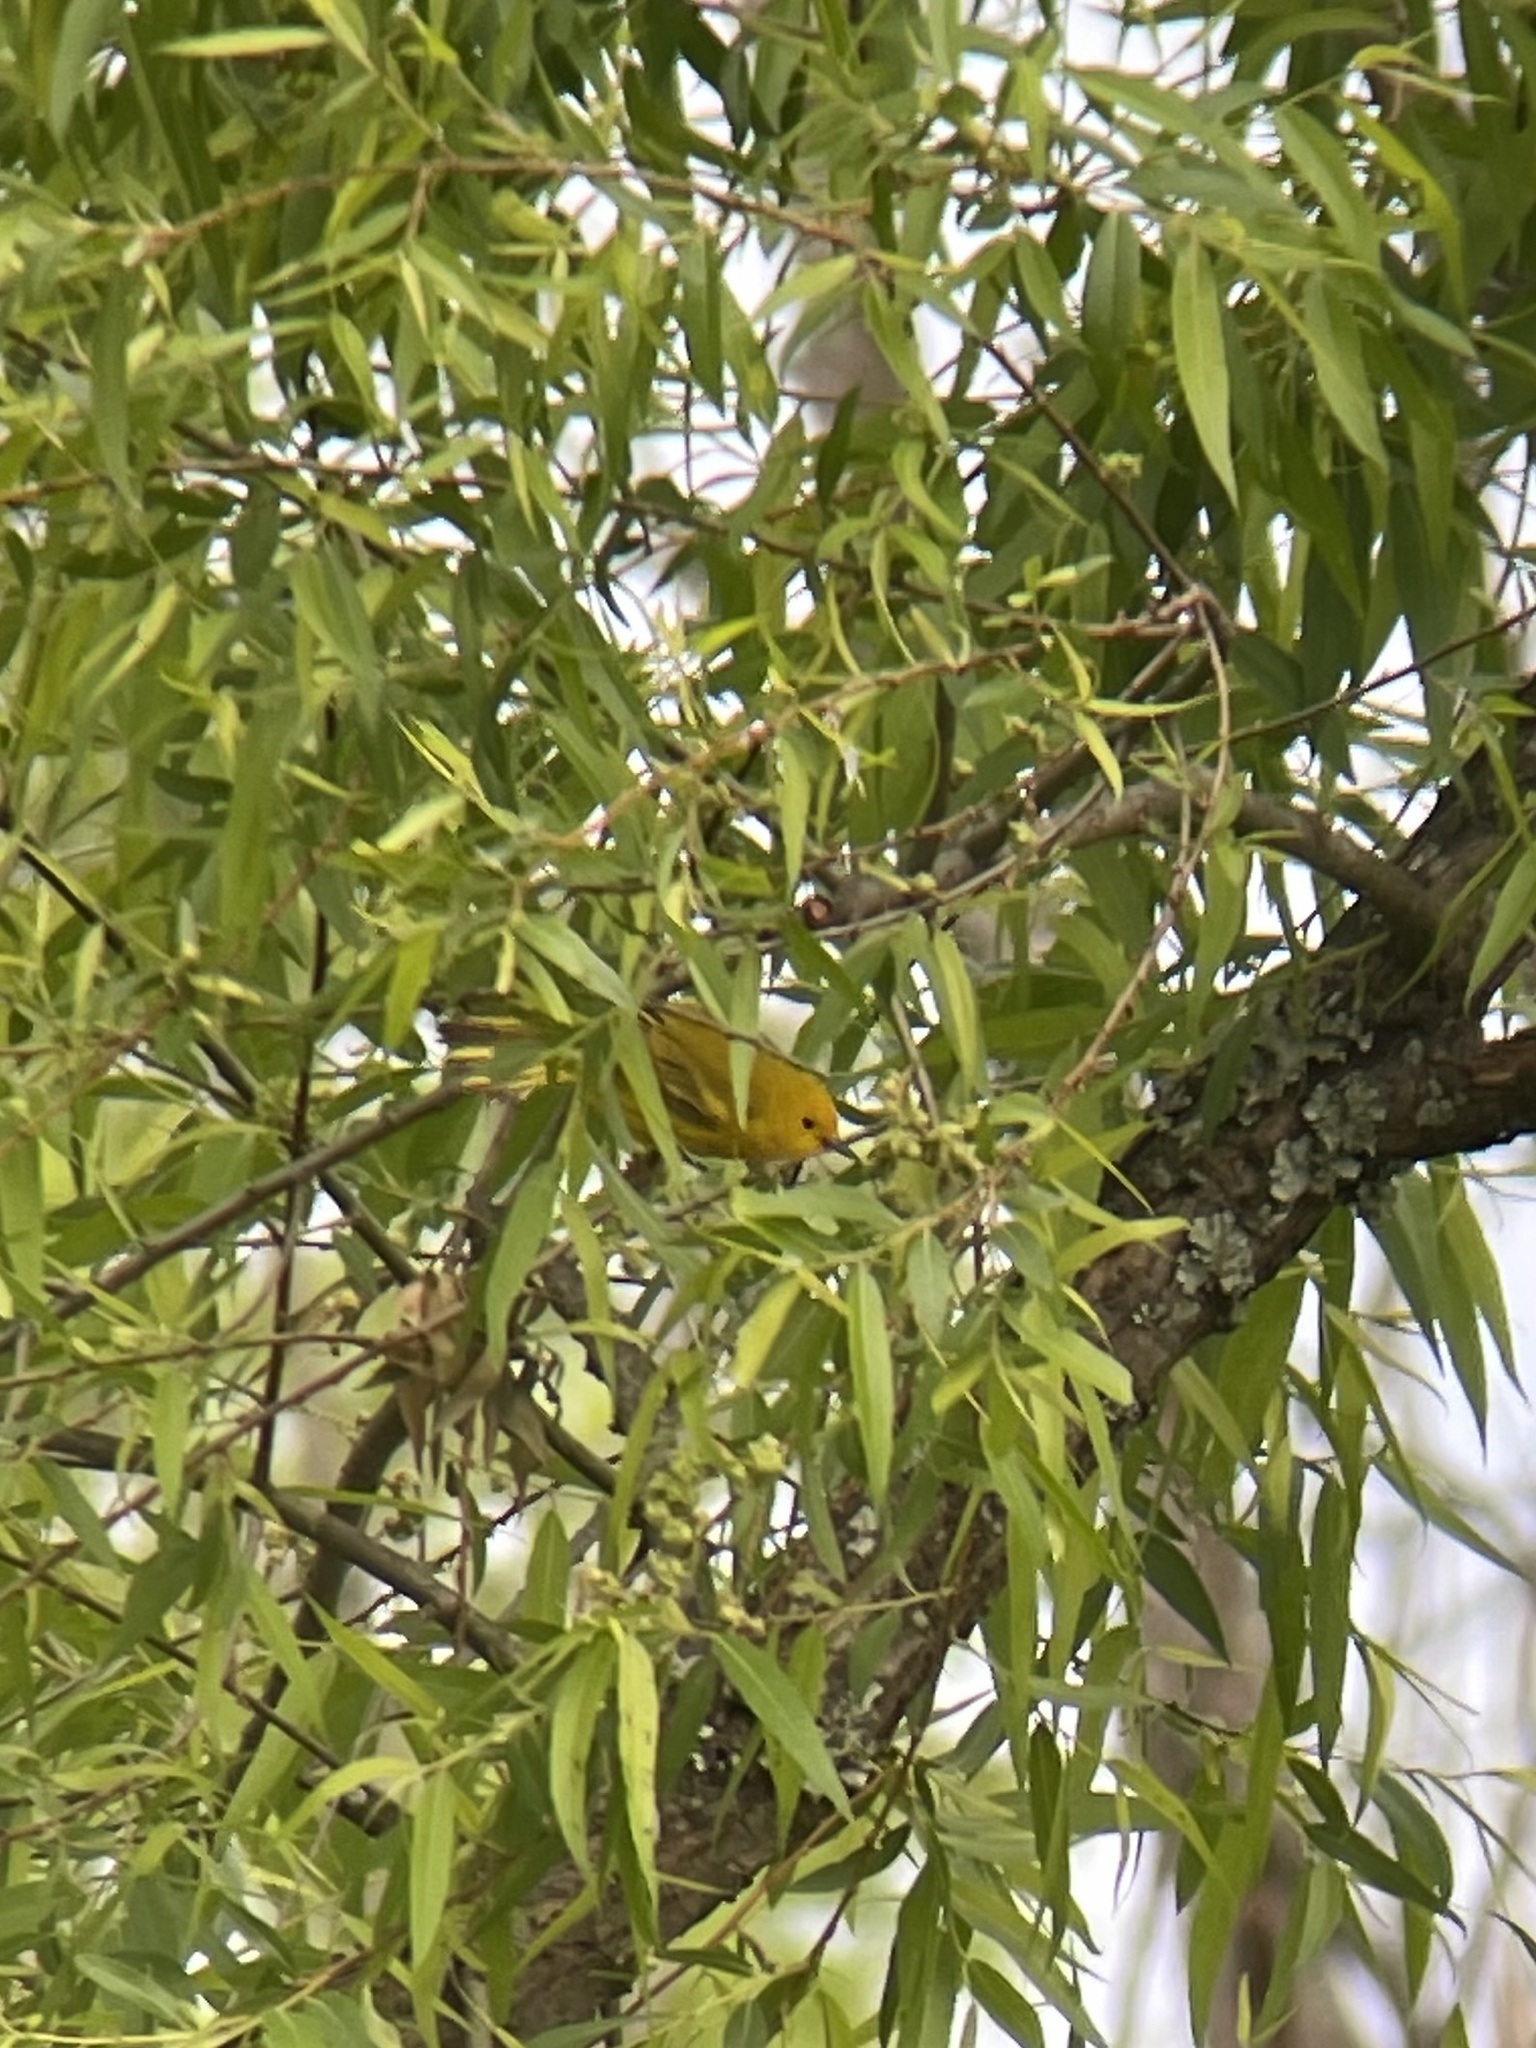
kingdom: Animalia
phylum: Chordata
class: Aves
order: Passeriformes
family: Parulidae
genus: Setophaga
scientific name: Setophaga petechia
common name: Yellow warbler
